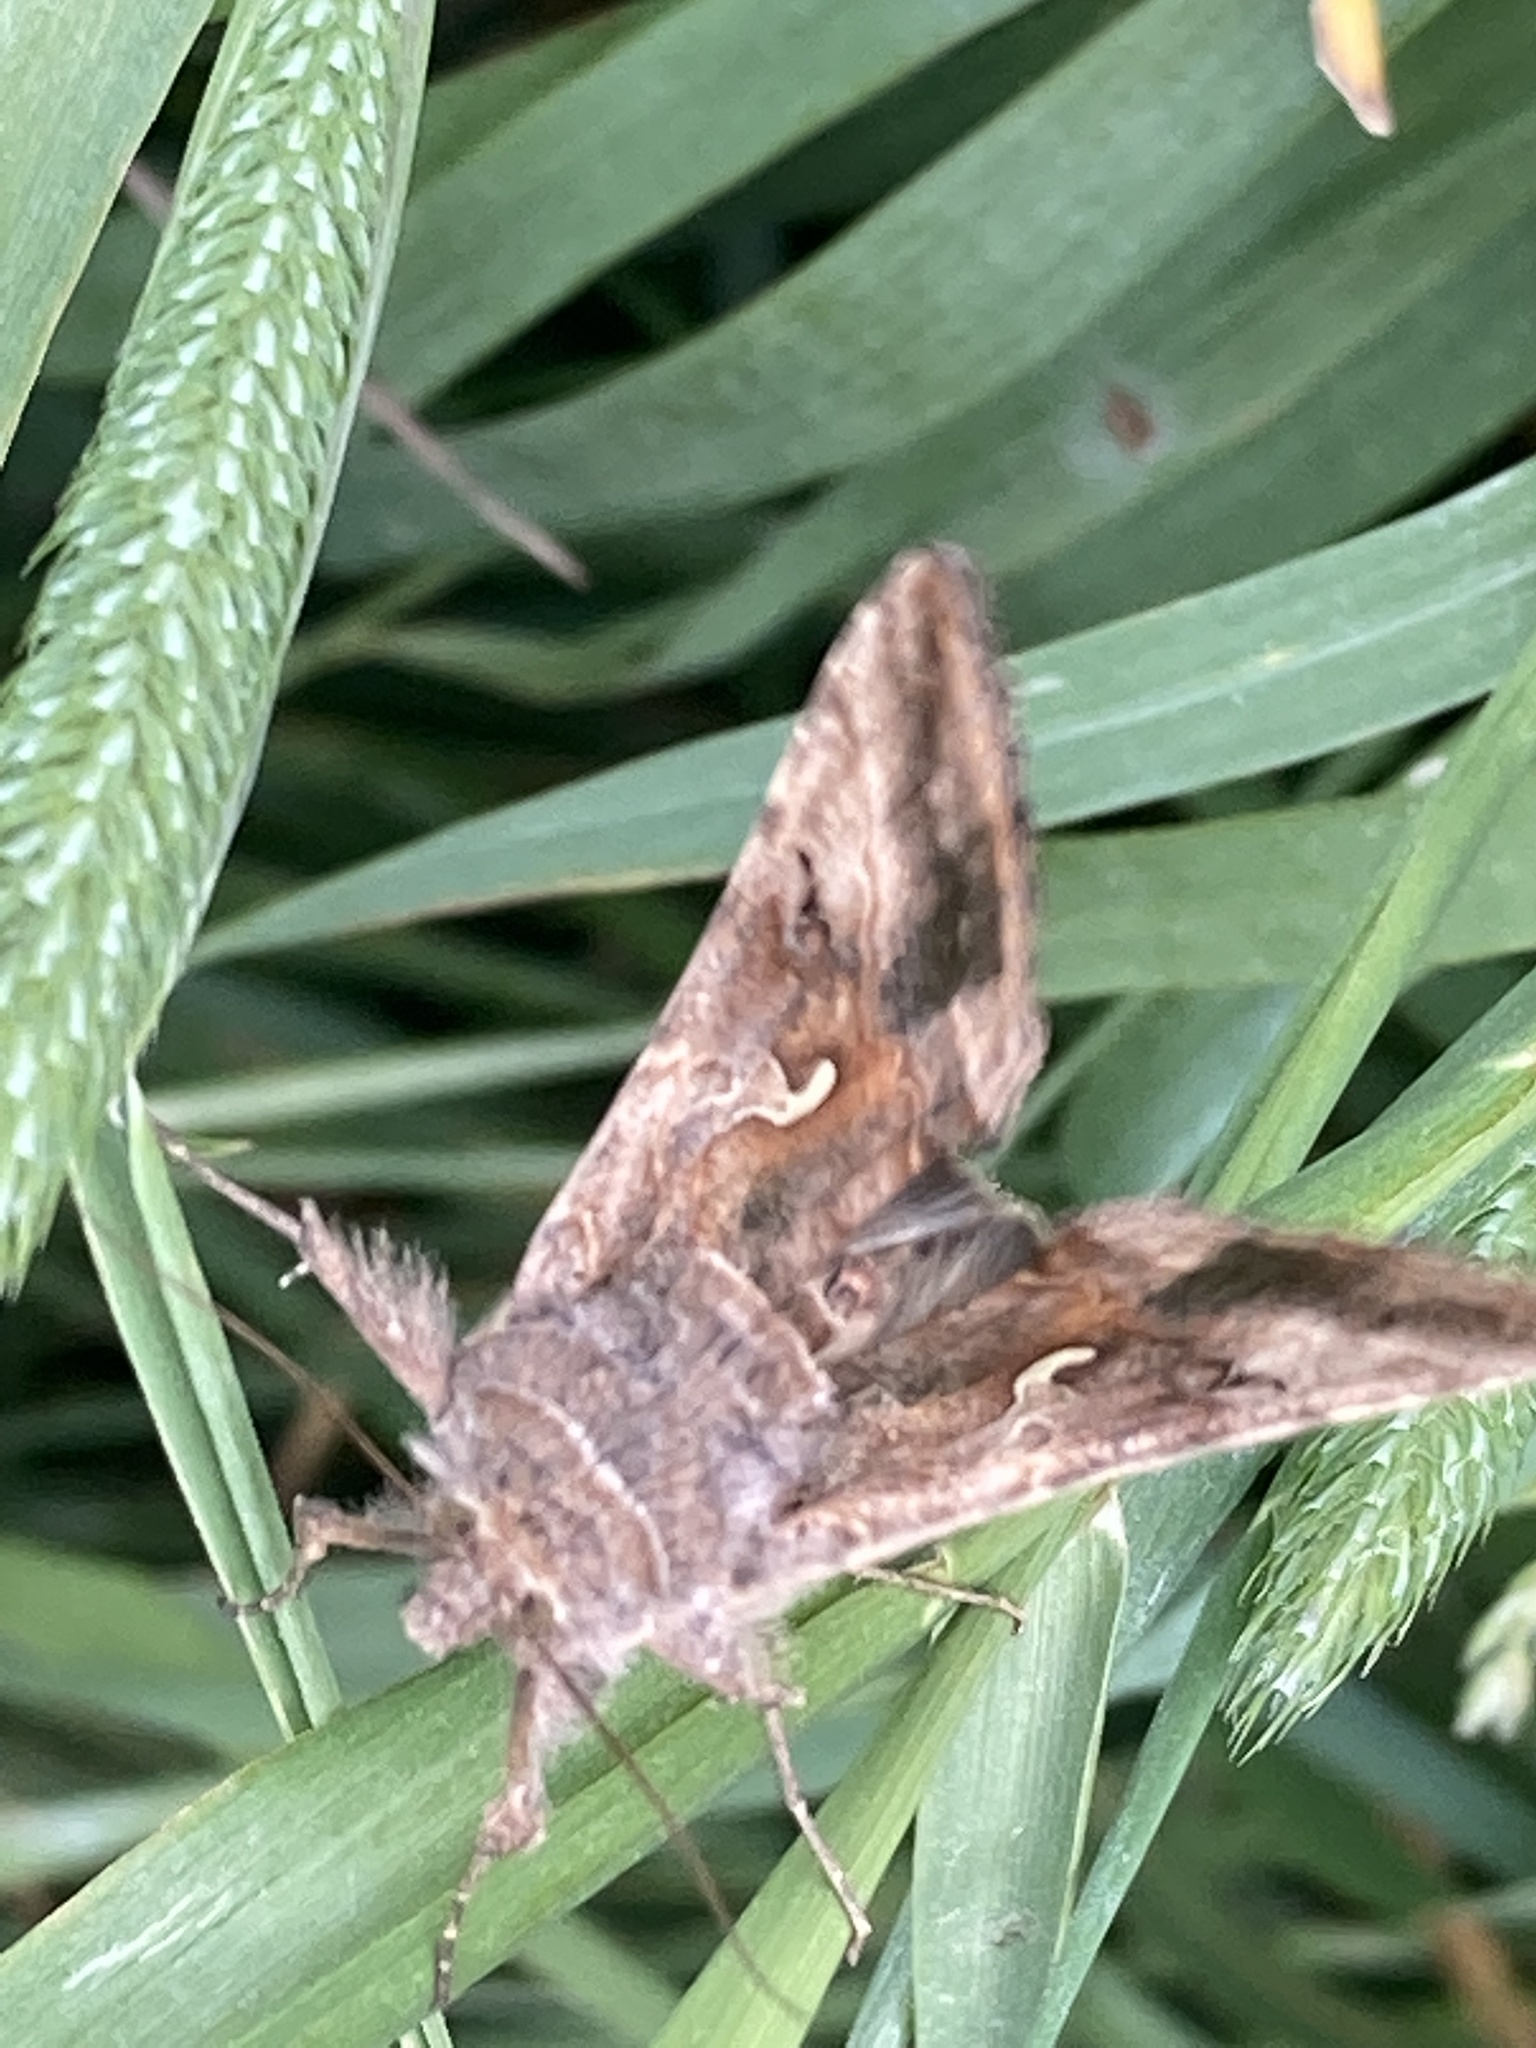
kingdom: Animalia
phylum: Arthropoda
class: Insecta
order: Lepidoptera
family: Noctuidae
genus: Autographa
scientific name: Autographa gamma
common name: Silver y
